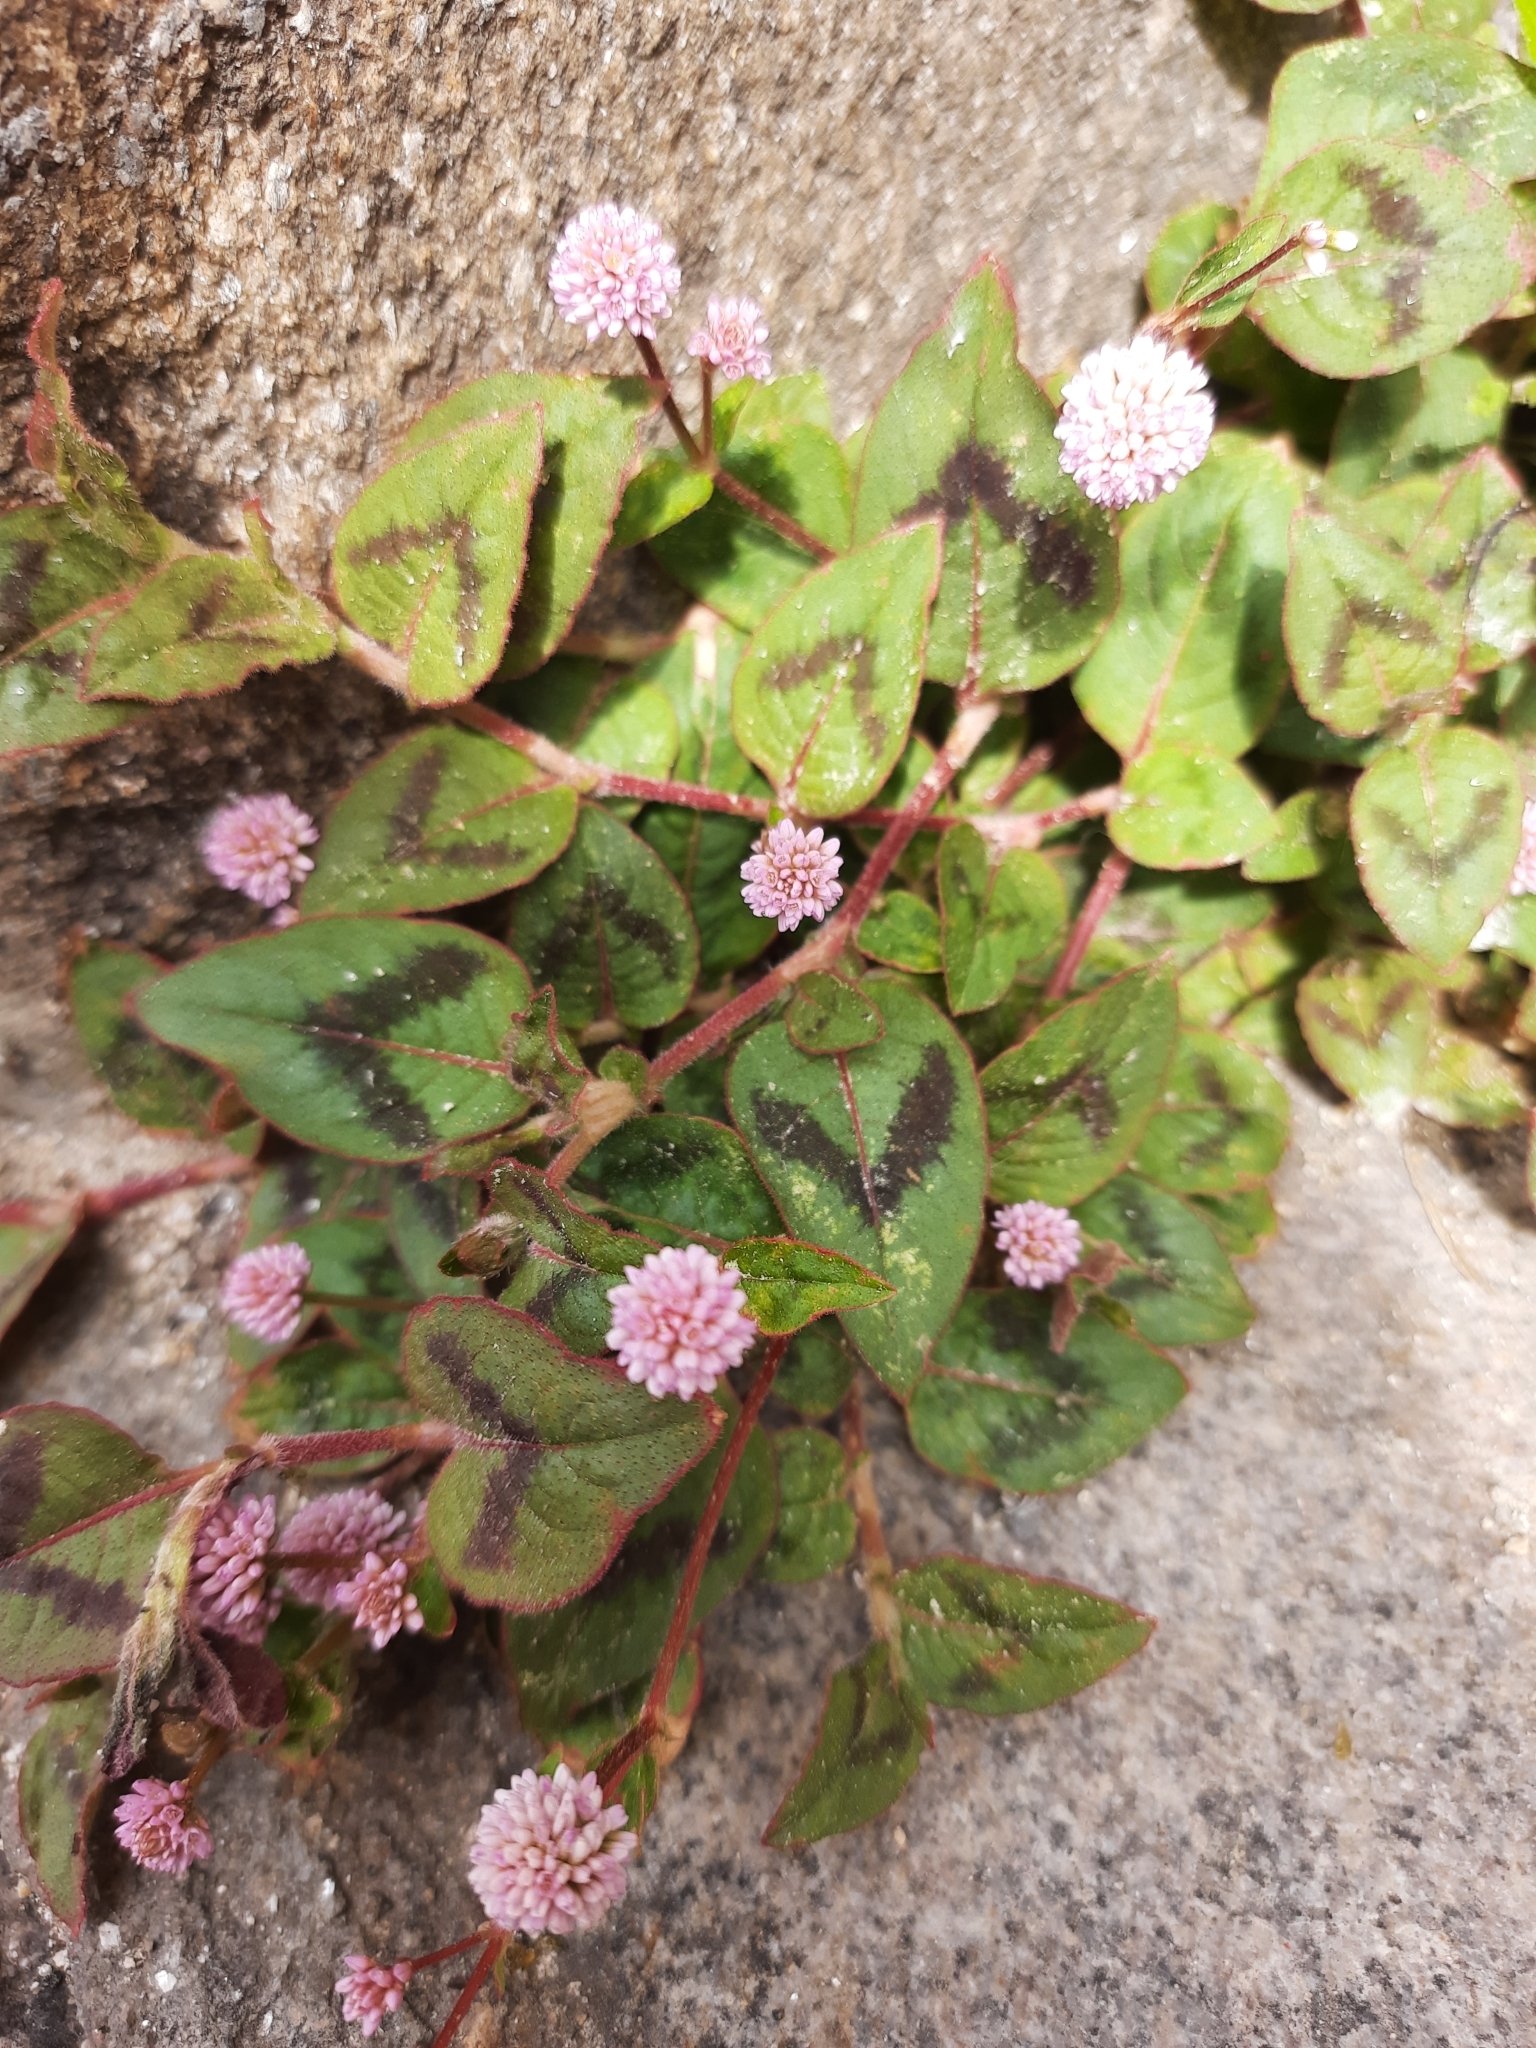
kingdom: Plantae
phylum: Tracheophyta
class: Magnoliopsida
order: Caryophyllales
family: Polygonaceae
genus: Persicaria
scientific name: Persicaria capitata
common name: Pinkhead smartweed
